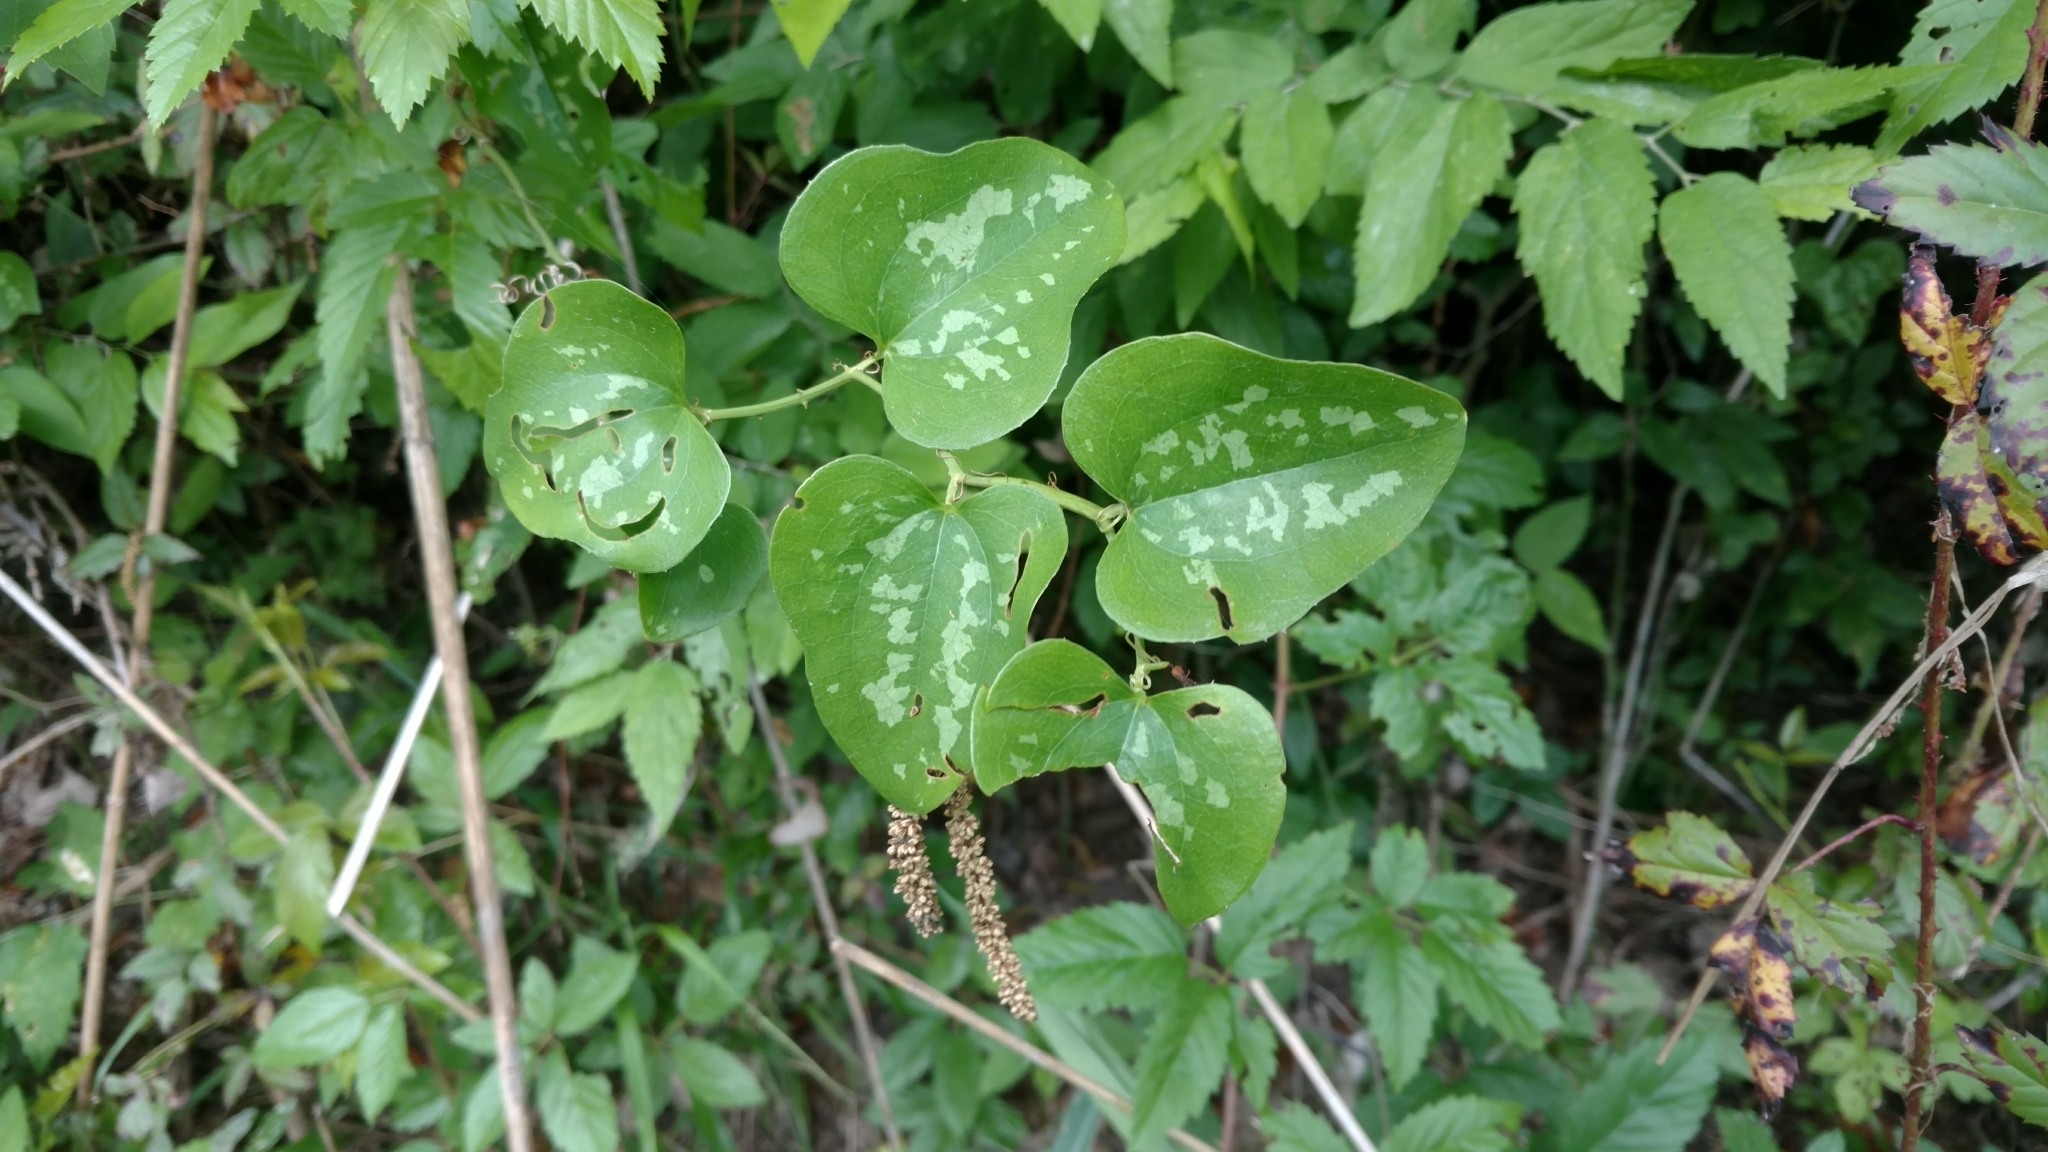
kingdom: Plantae
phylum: Tracheophyta
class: Liliopsida
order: Liliales
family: Smilacaceae
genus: Smilax
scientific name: Smilax bona-nox
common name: Catbrier
